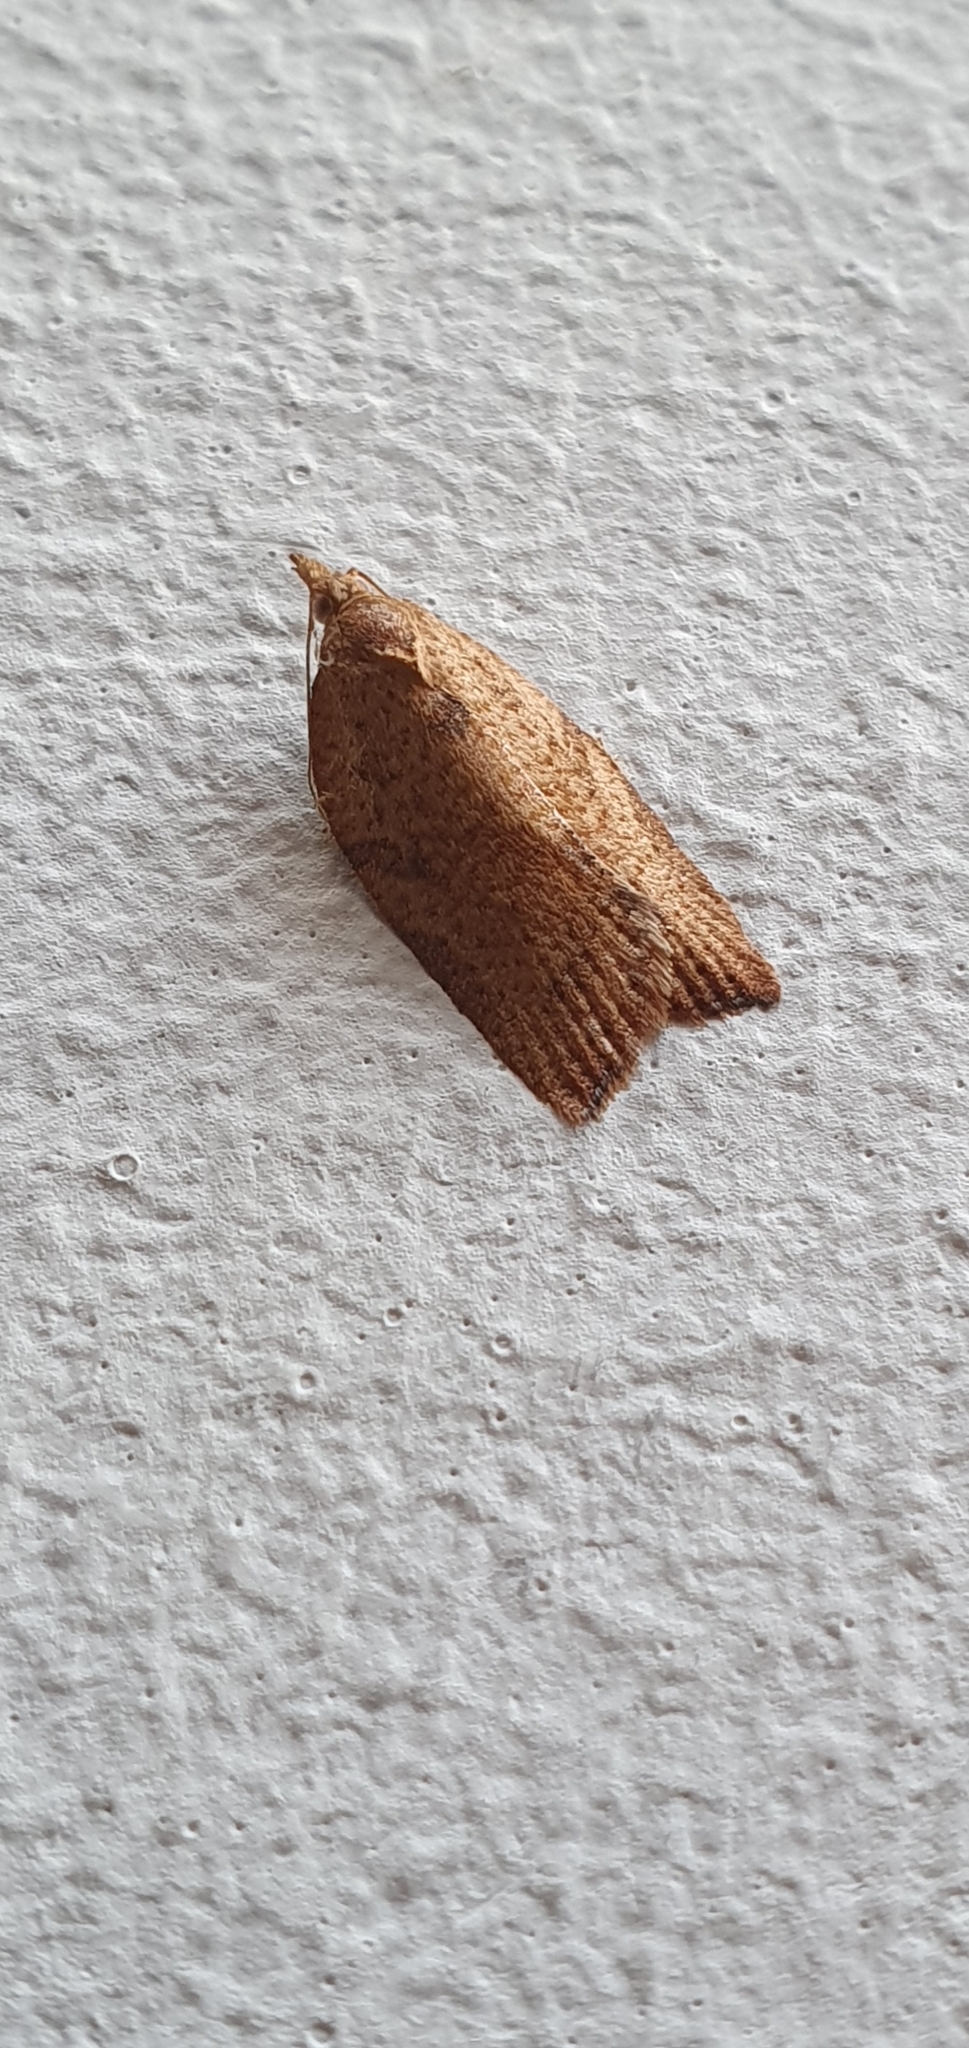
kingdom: Animalia
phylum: Arthropoda
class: Insecta
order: Lepidoptera
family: Tortricidae
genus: Epiphyas
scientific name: Epiphyas postvittana
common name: Light brown apple moth
